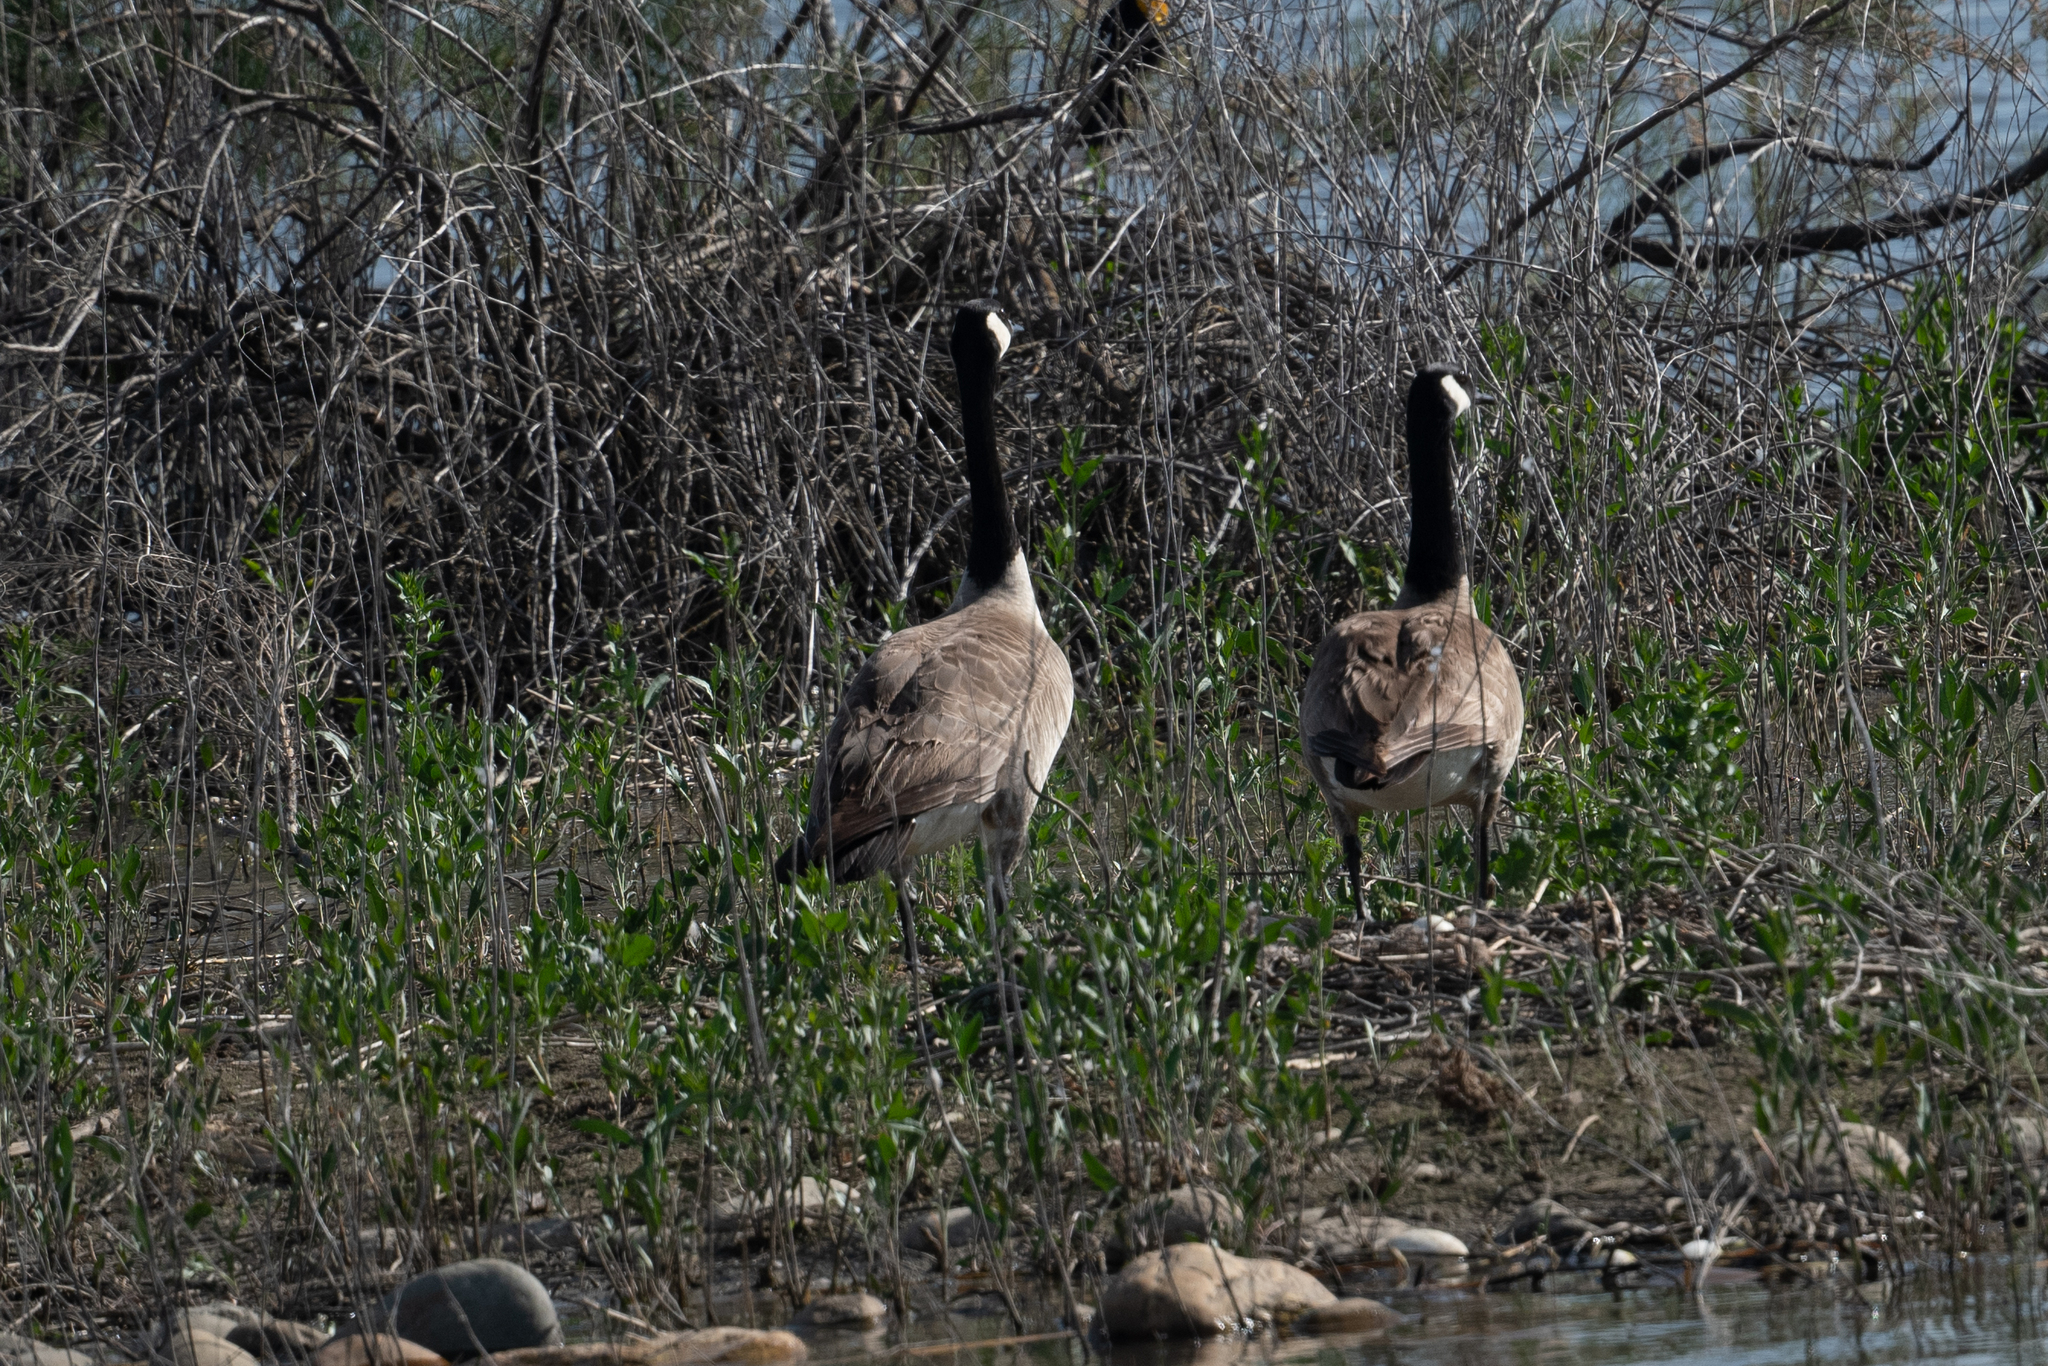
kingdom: Animalia
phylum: Chordata
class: Aves
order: Anseriformes
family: Anatidae
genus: Branta
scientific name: Branta canadensis
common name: Canada goose
